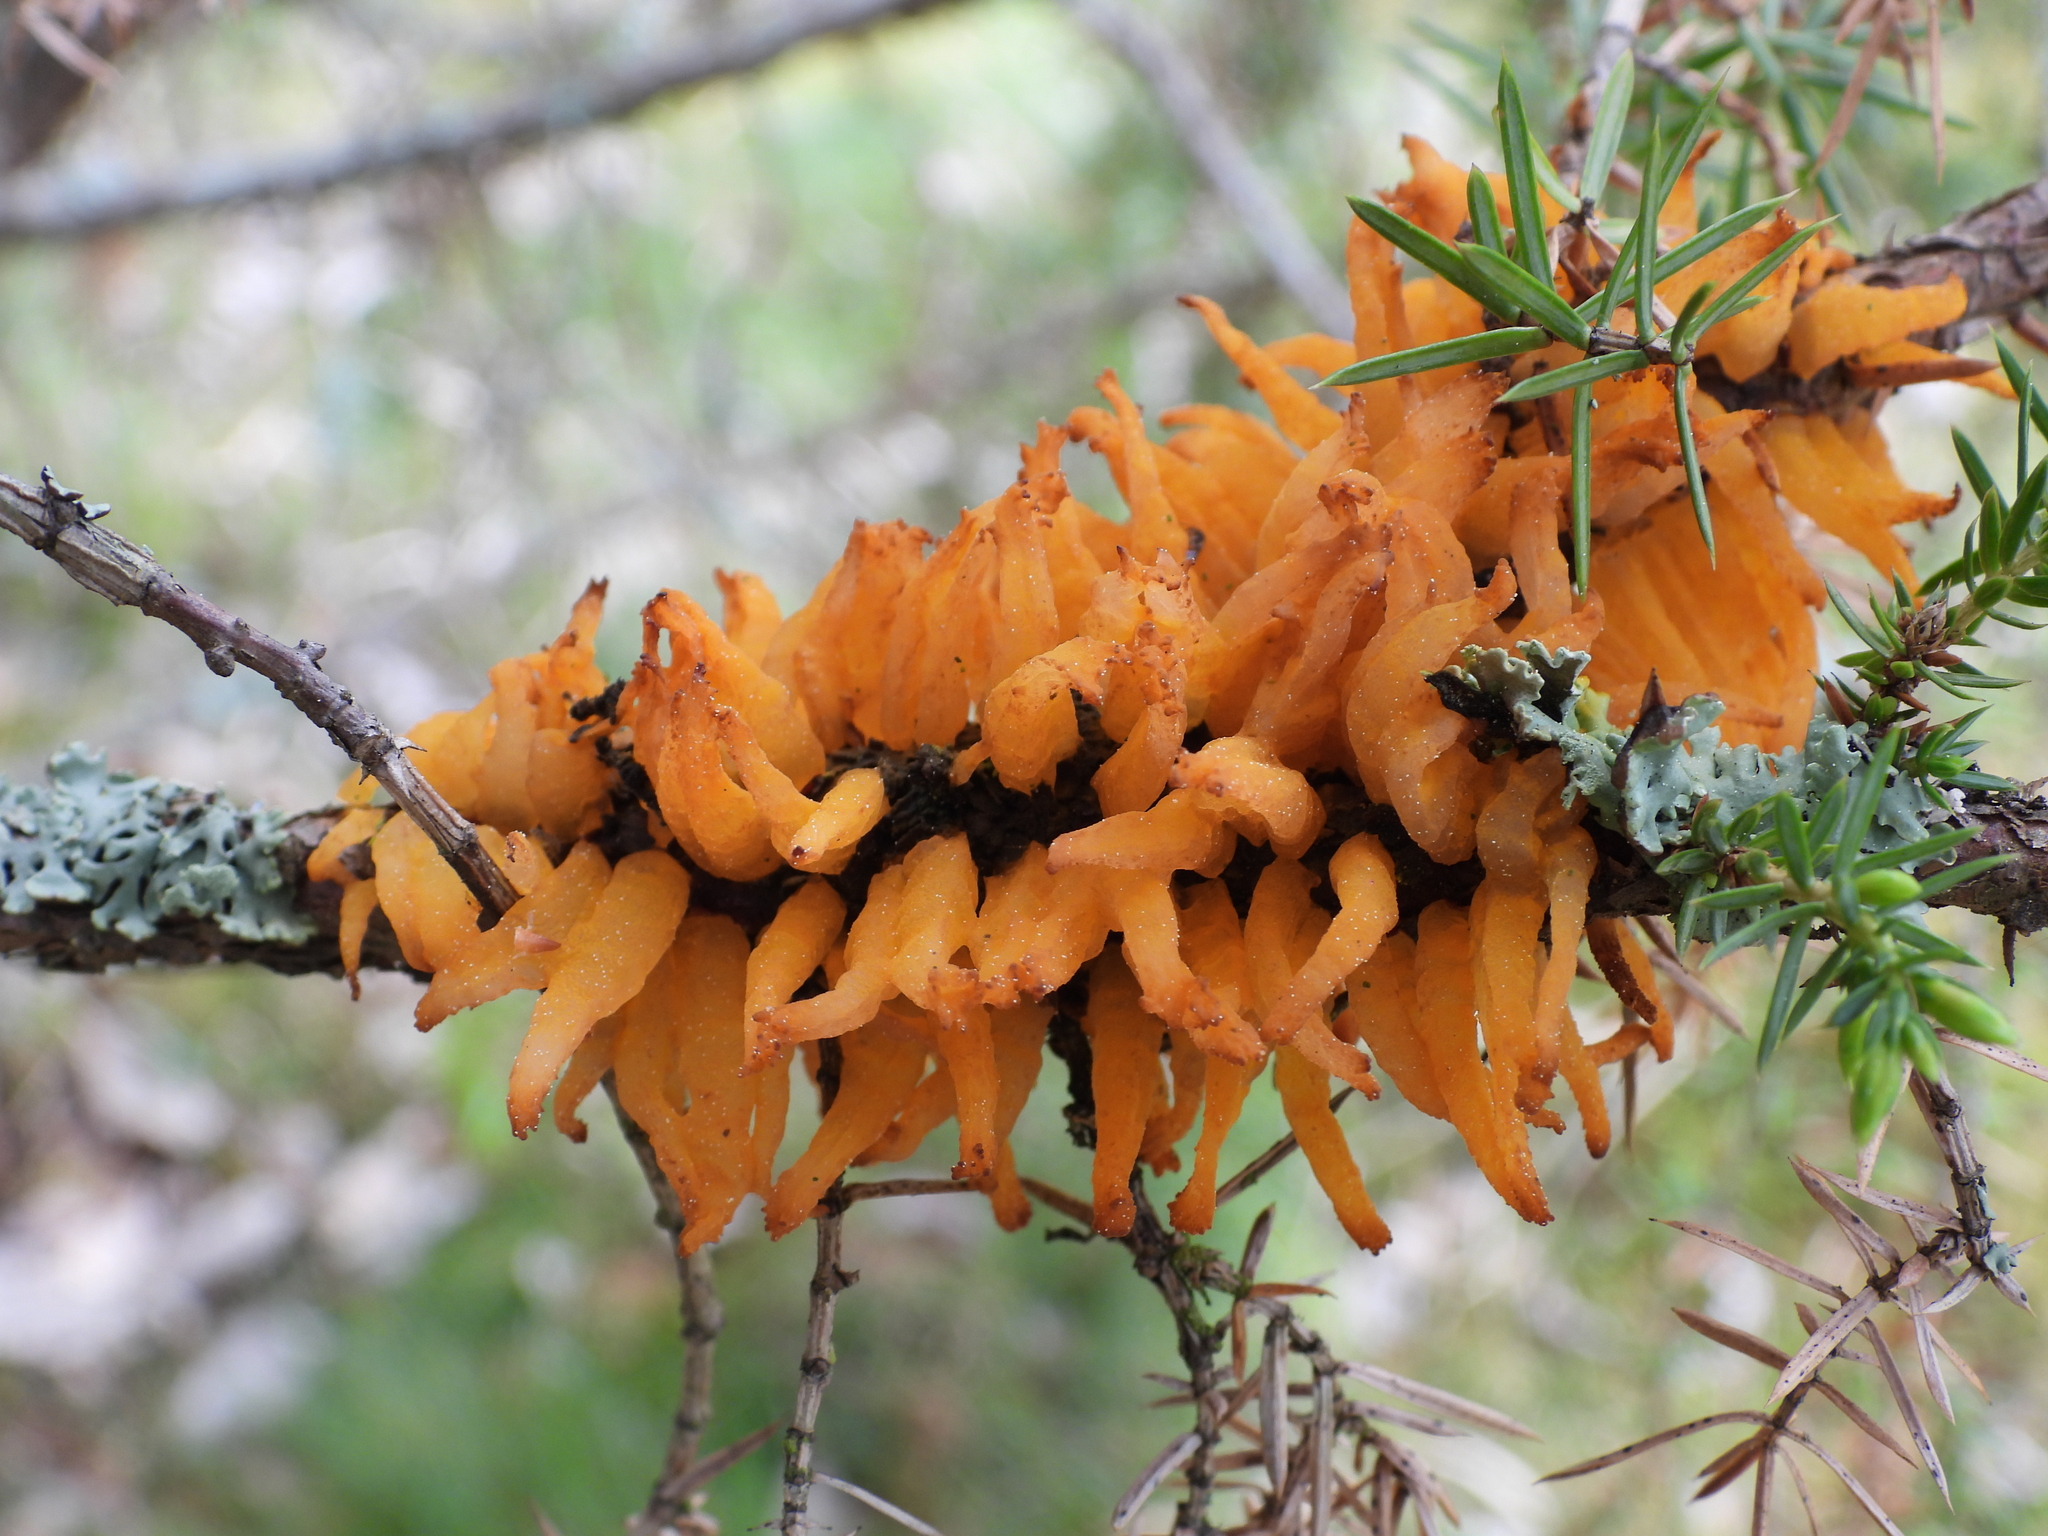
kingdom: Fungi
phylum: Basidiomycota
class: Pucciniomycetes
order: Pucciniales
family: Gymnosporangiaceae
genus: Gymnosporangium
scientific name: Gymnosporangium clavariiforme
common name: Tongues of fire
